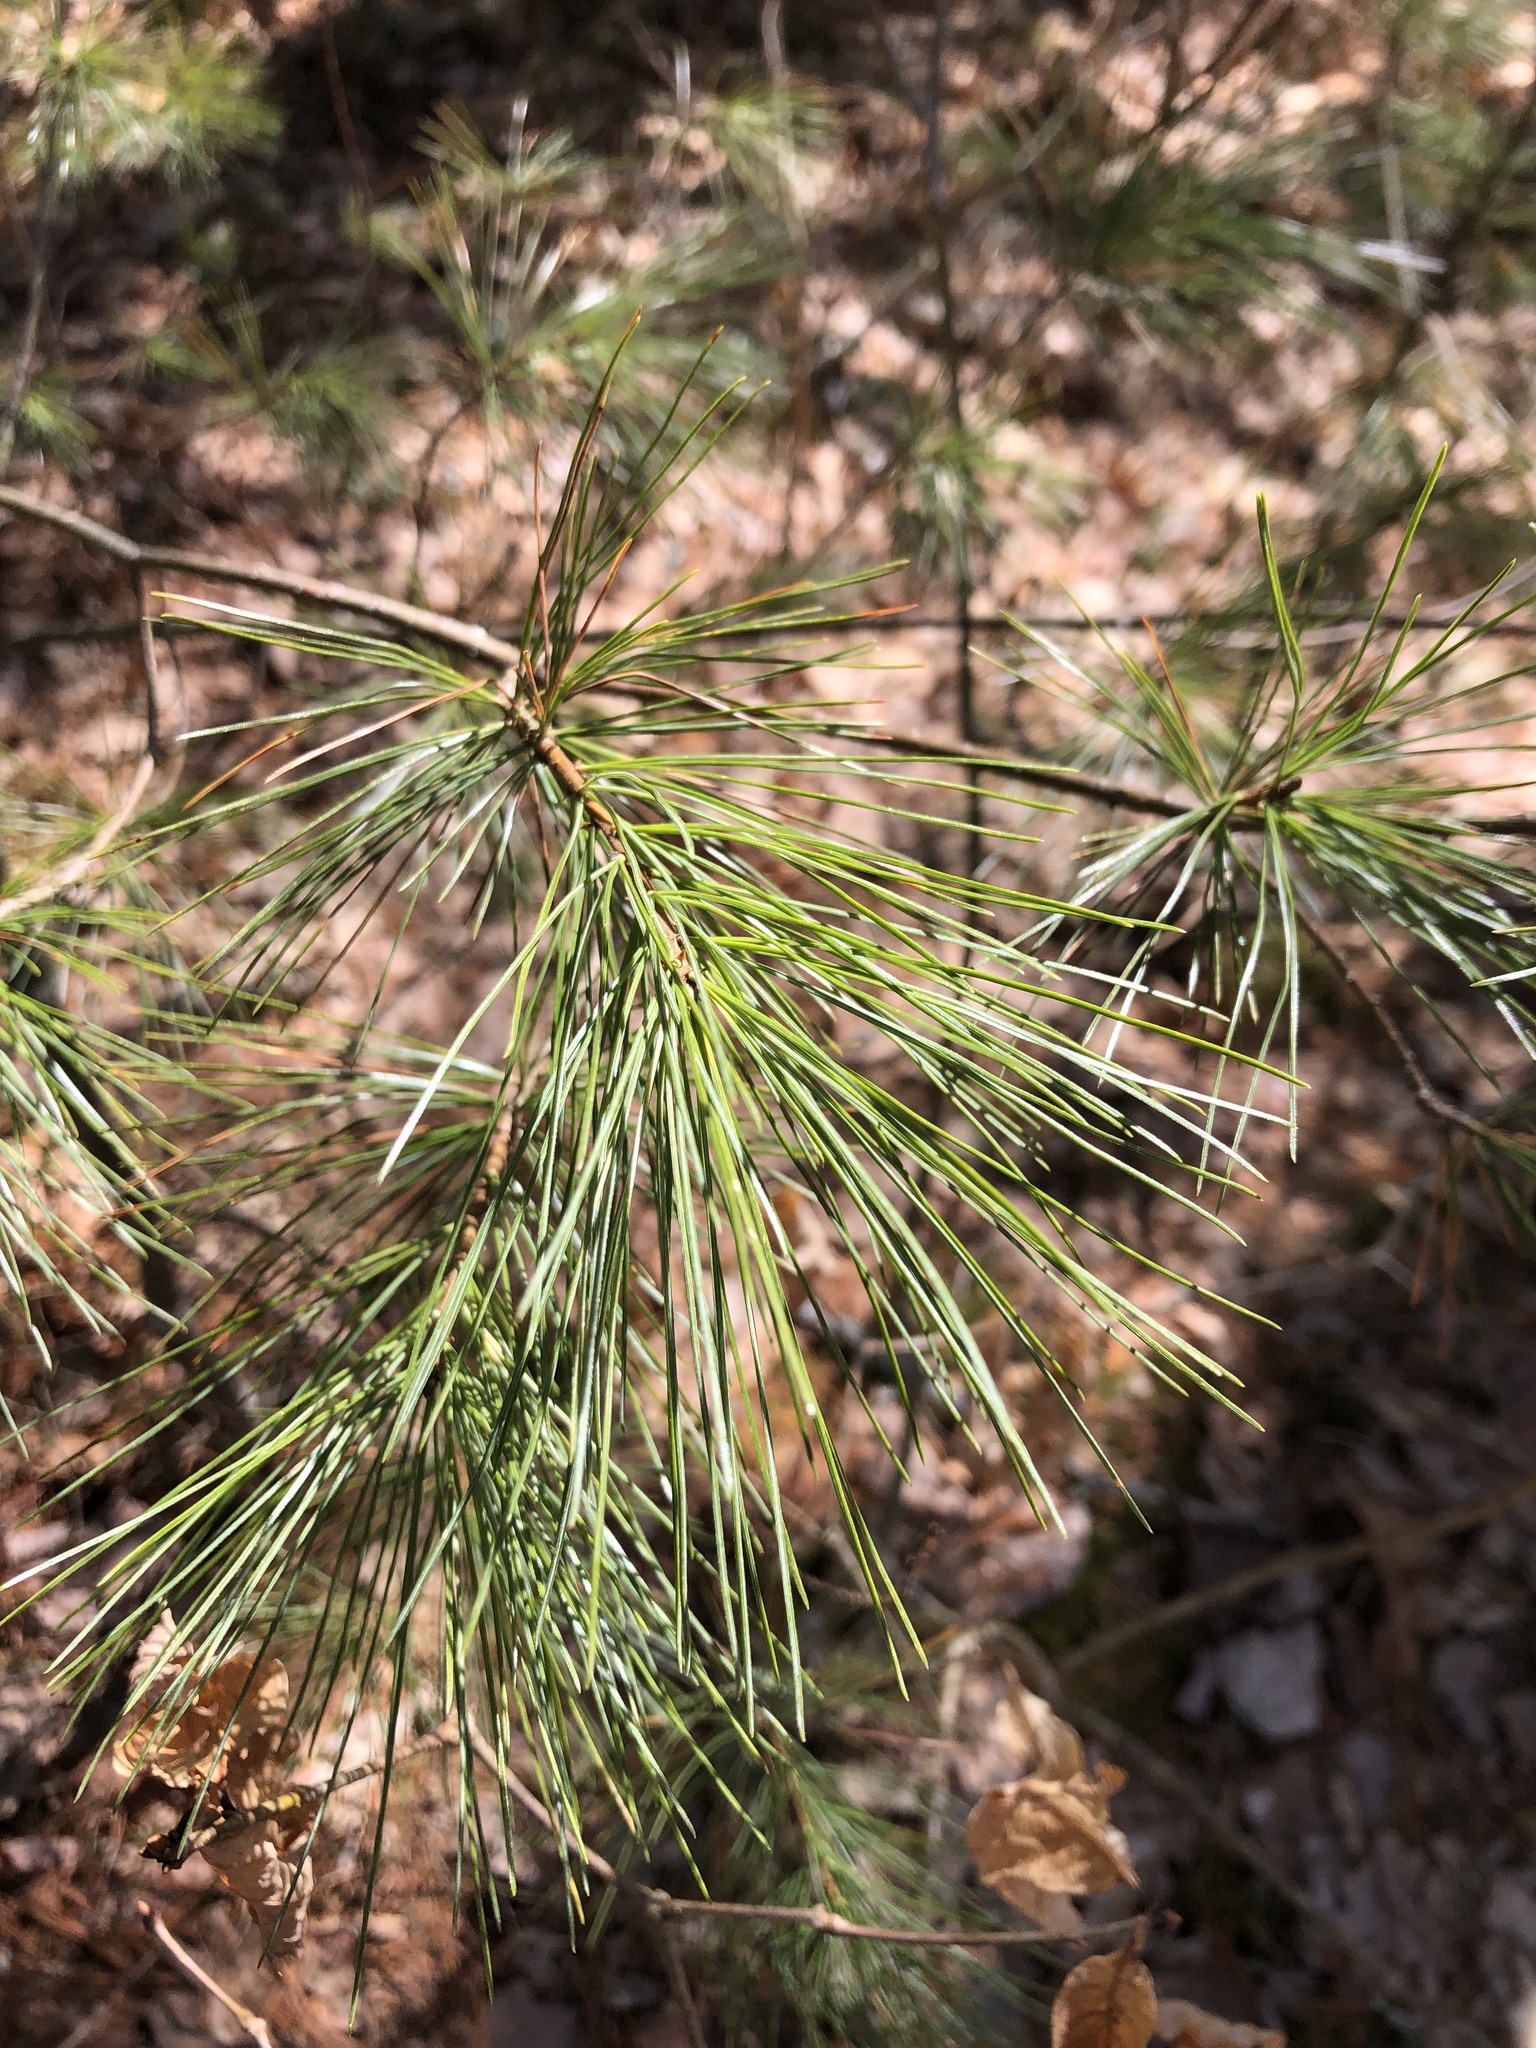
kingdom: Plantae
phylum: Tracheophyta
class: Pinopsida
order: Pinales
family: Pinaceae
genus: Pinus
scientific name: Pinus strobus
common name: Weymouth pine
